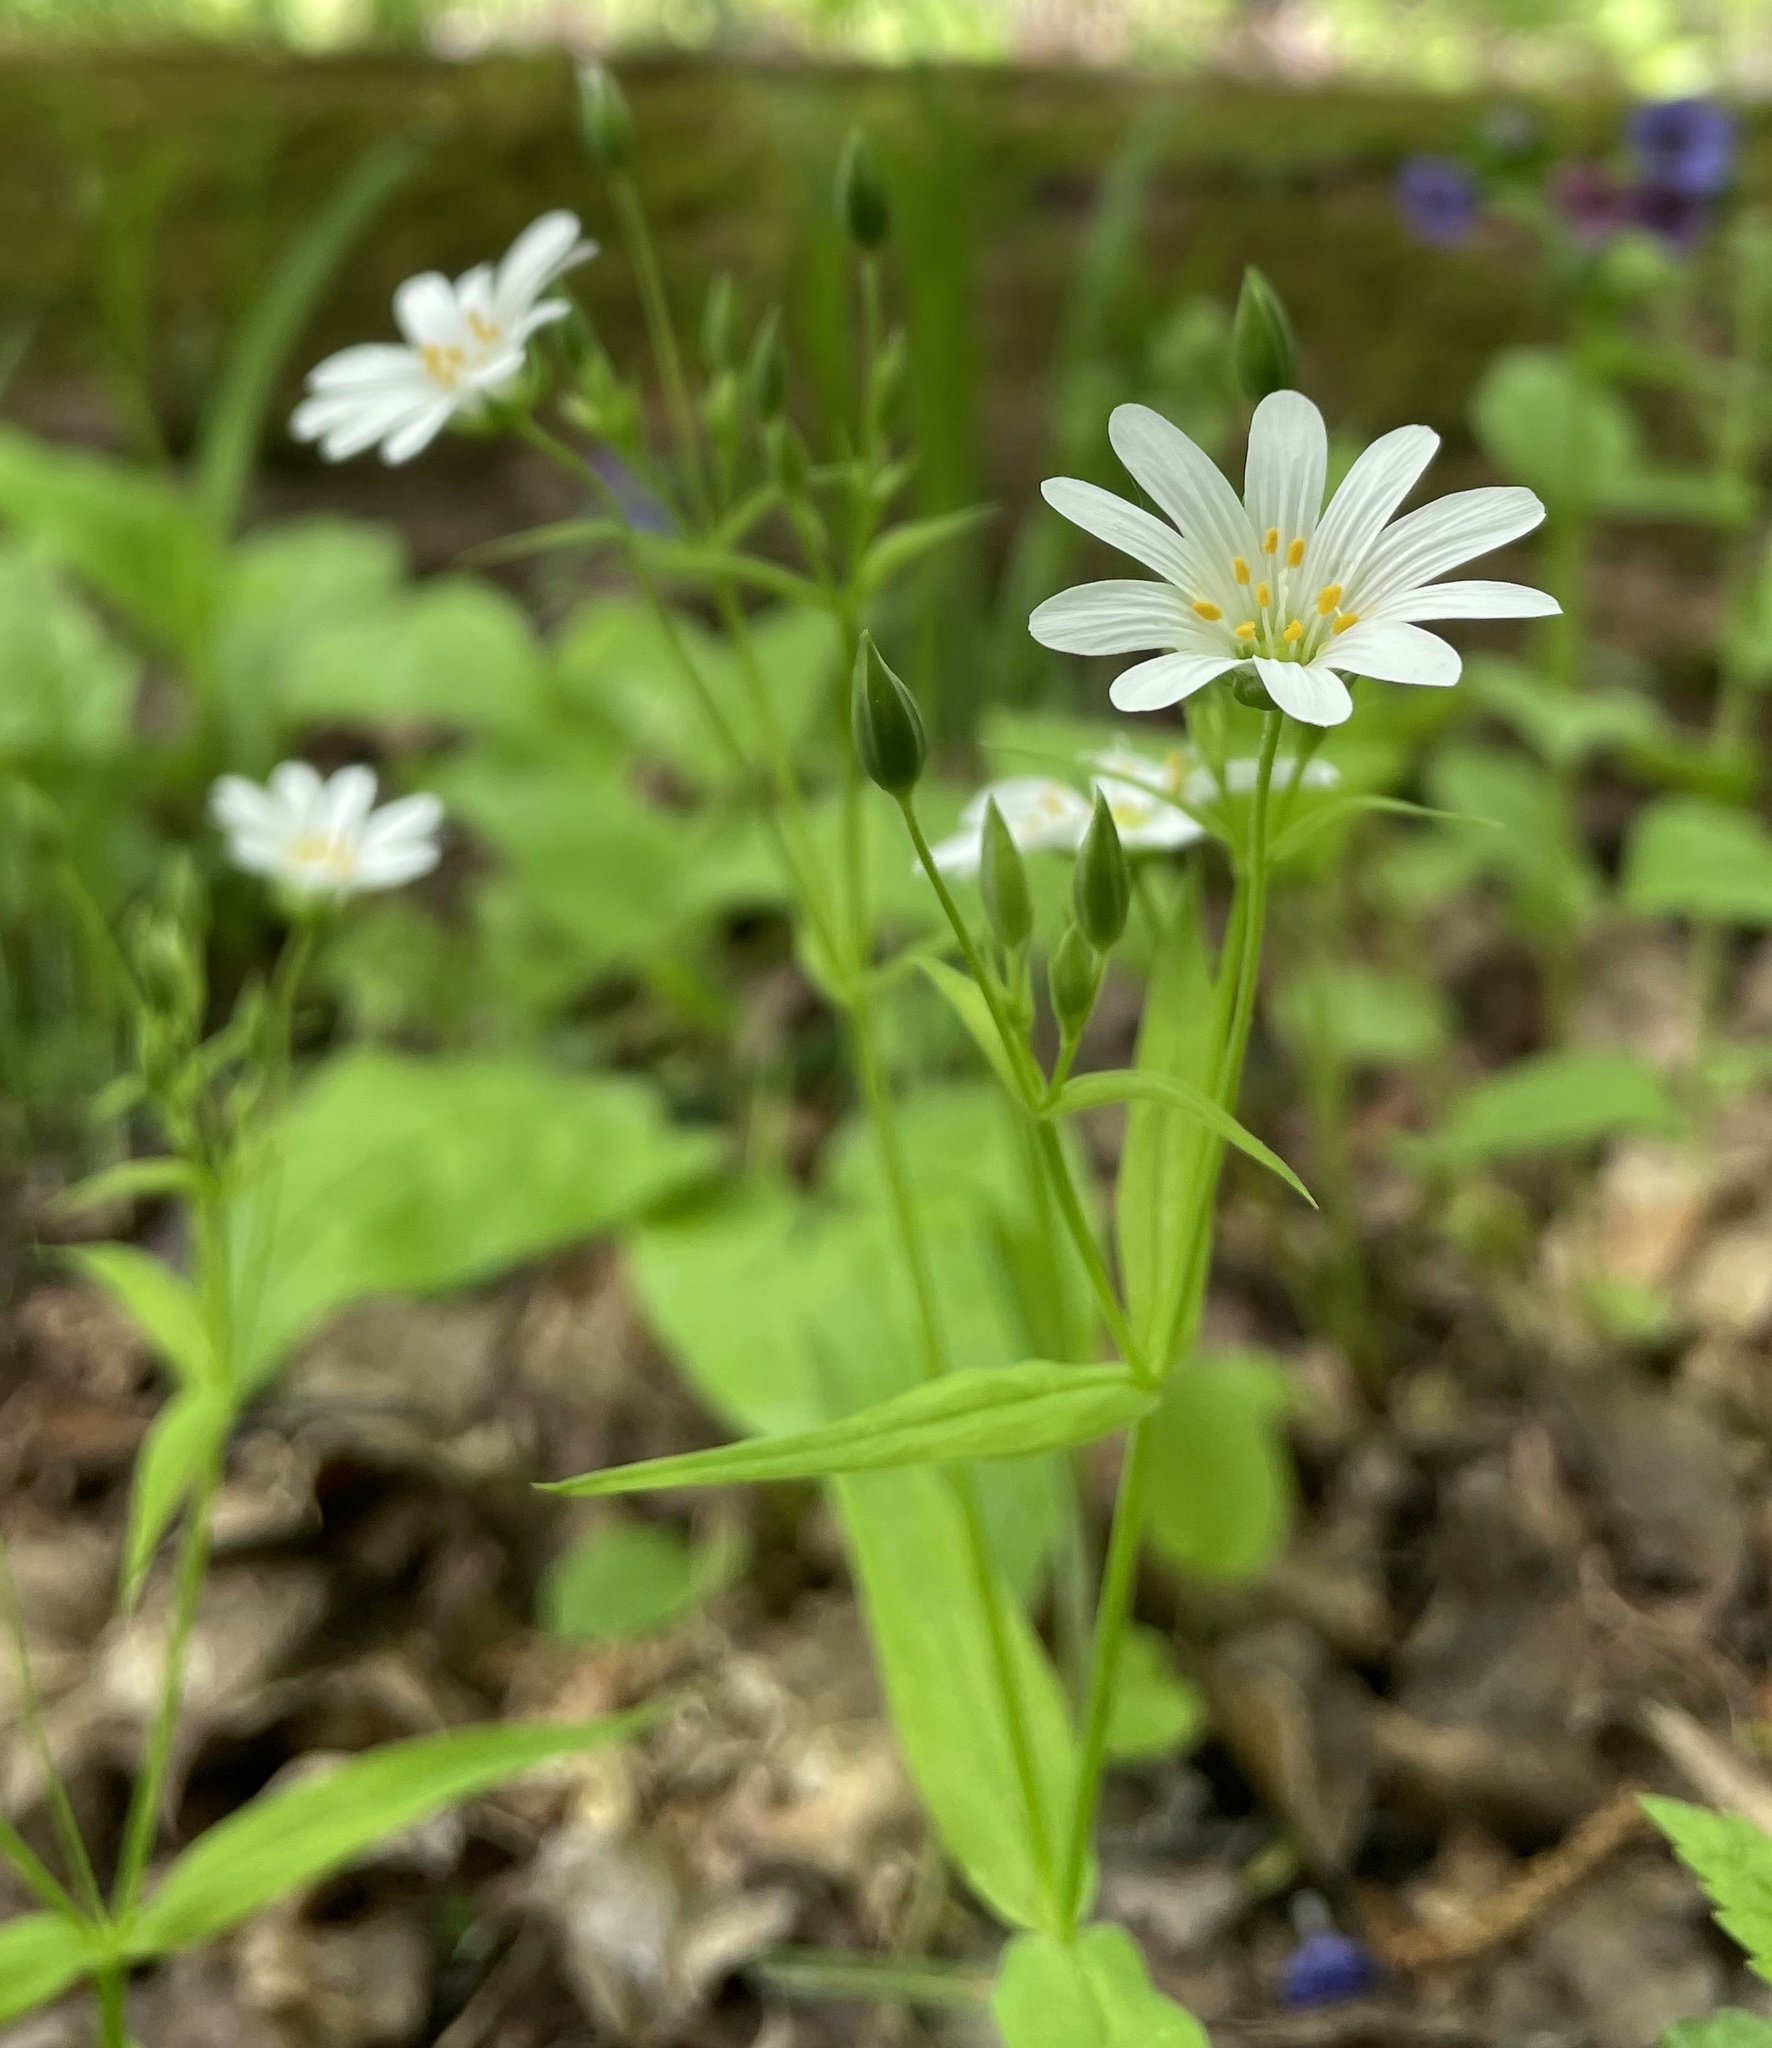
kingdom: Plantae
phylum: Tracheophyta
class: Magnoliopsida
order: Caryophyllales
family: Caryophyllaceae
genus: Rabelera
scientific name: Rabelera holostea
